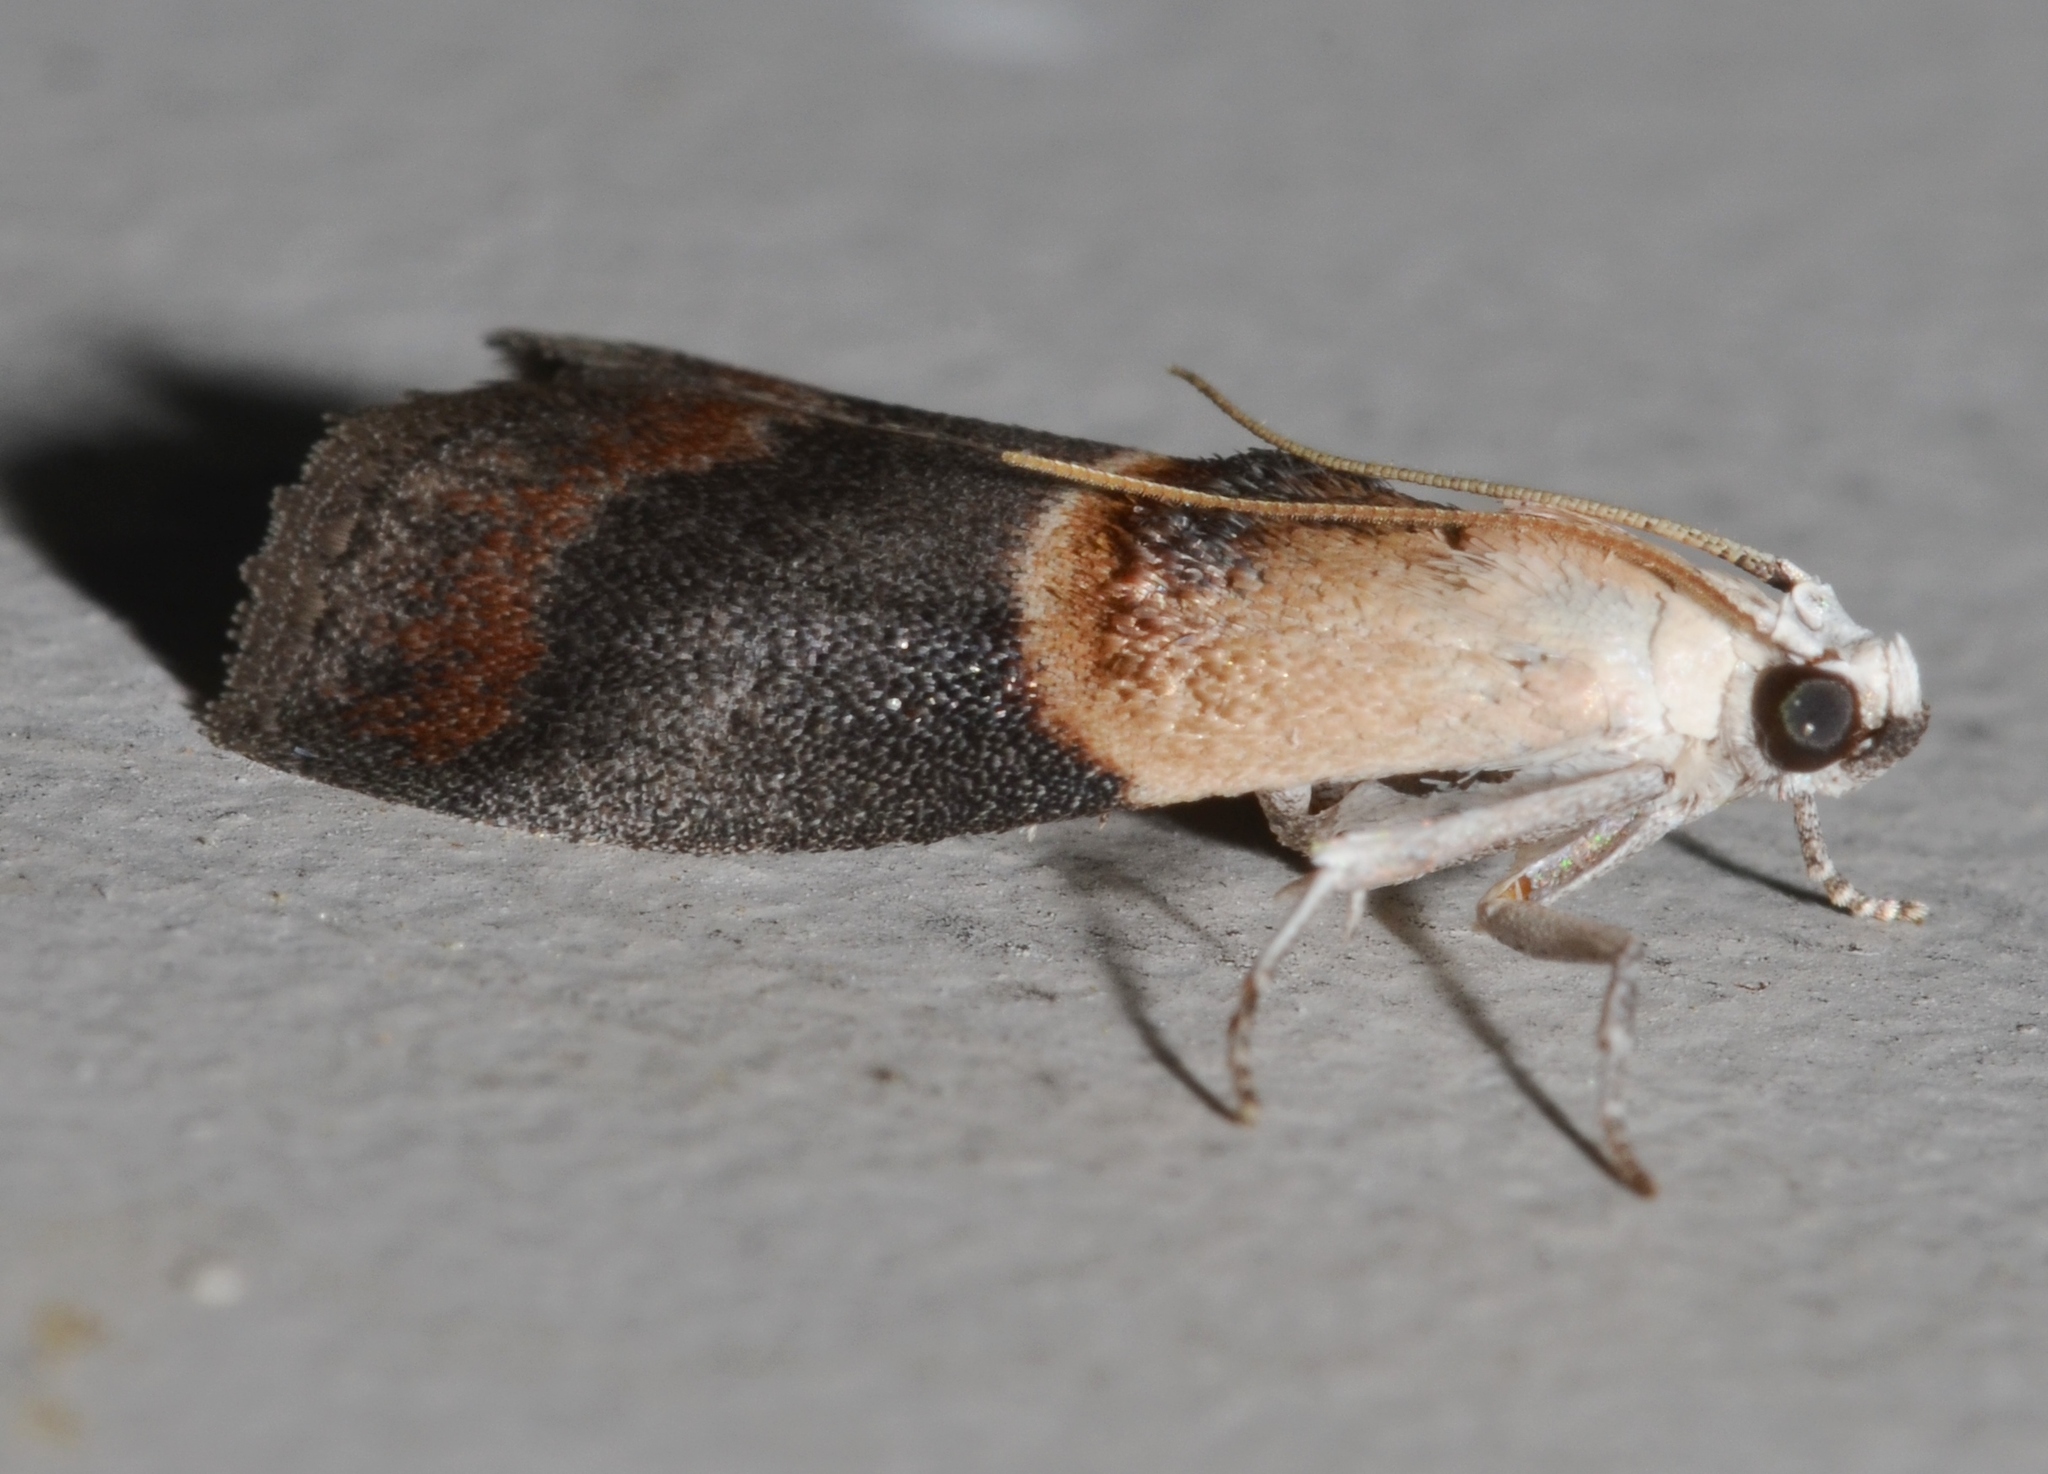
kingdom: Animalia
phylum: Arthropoda
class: Insecta
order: Lepidoptera
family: Pyralidae
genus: Acrobasis
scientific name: Acrobasis demotella
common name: Walnut shoot moth
